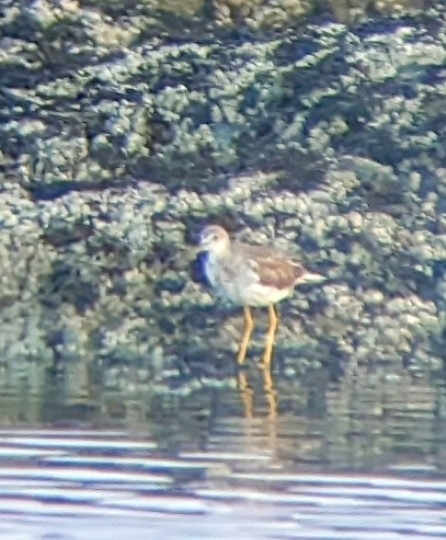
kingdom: Animalia
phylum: Chordata
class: Aves
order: Charadriiformes
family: Scolopacidae
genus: Tringa
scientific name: Tringa melanoleuca
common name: Greater yellowlegs
